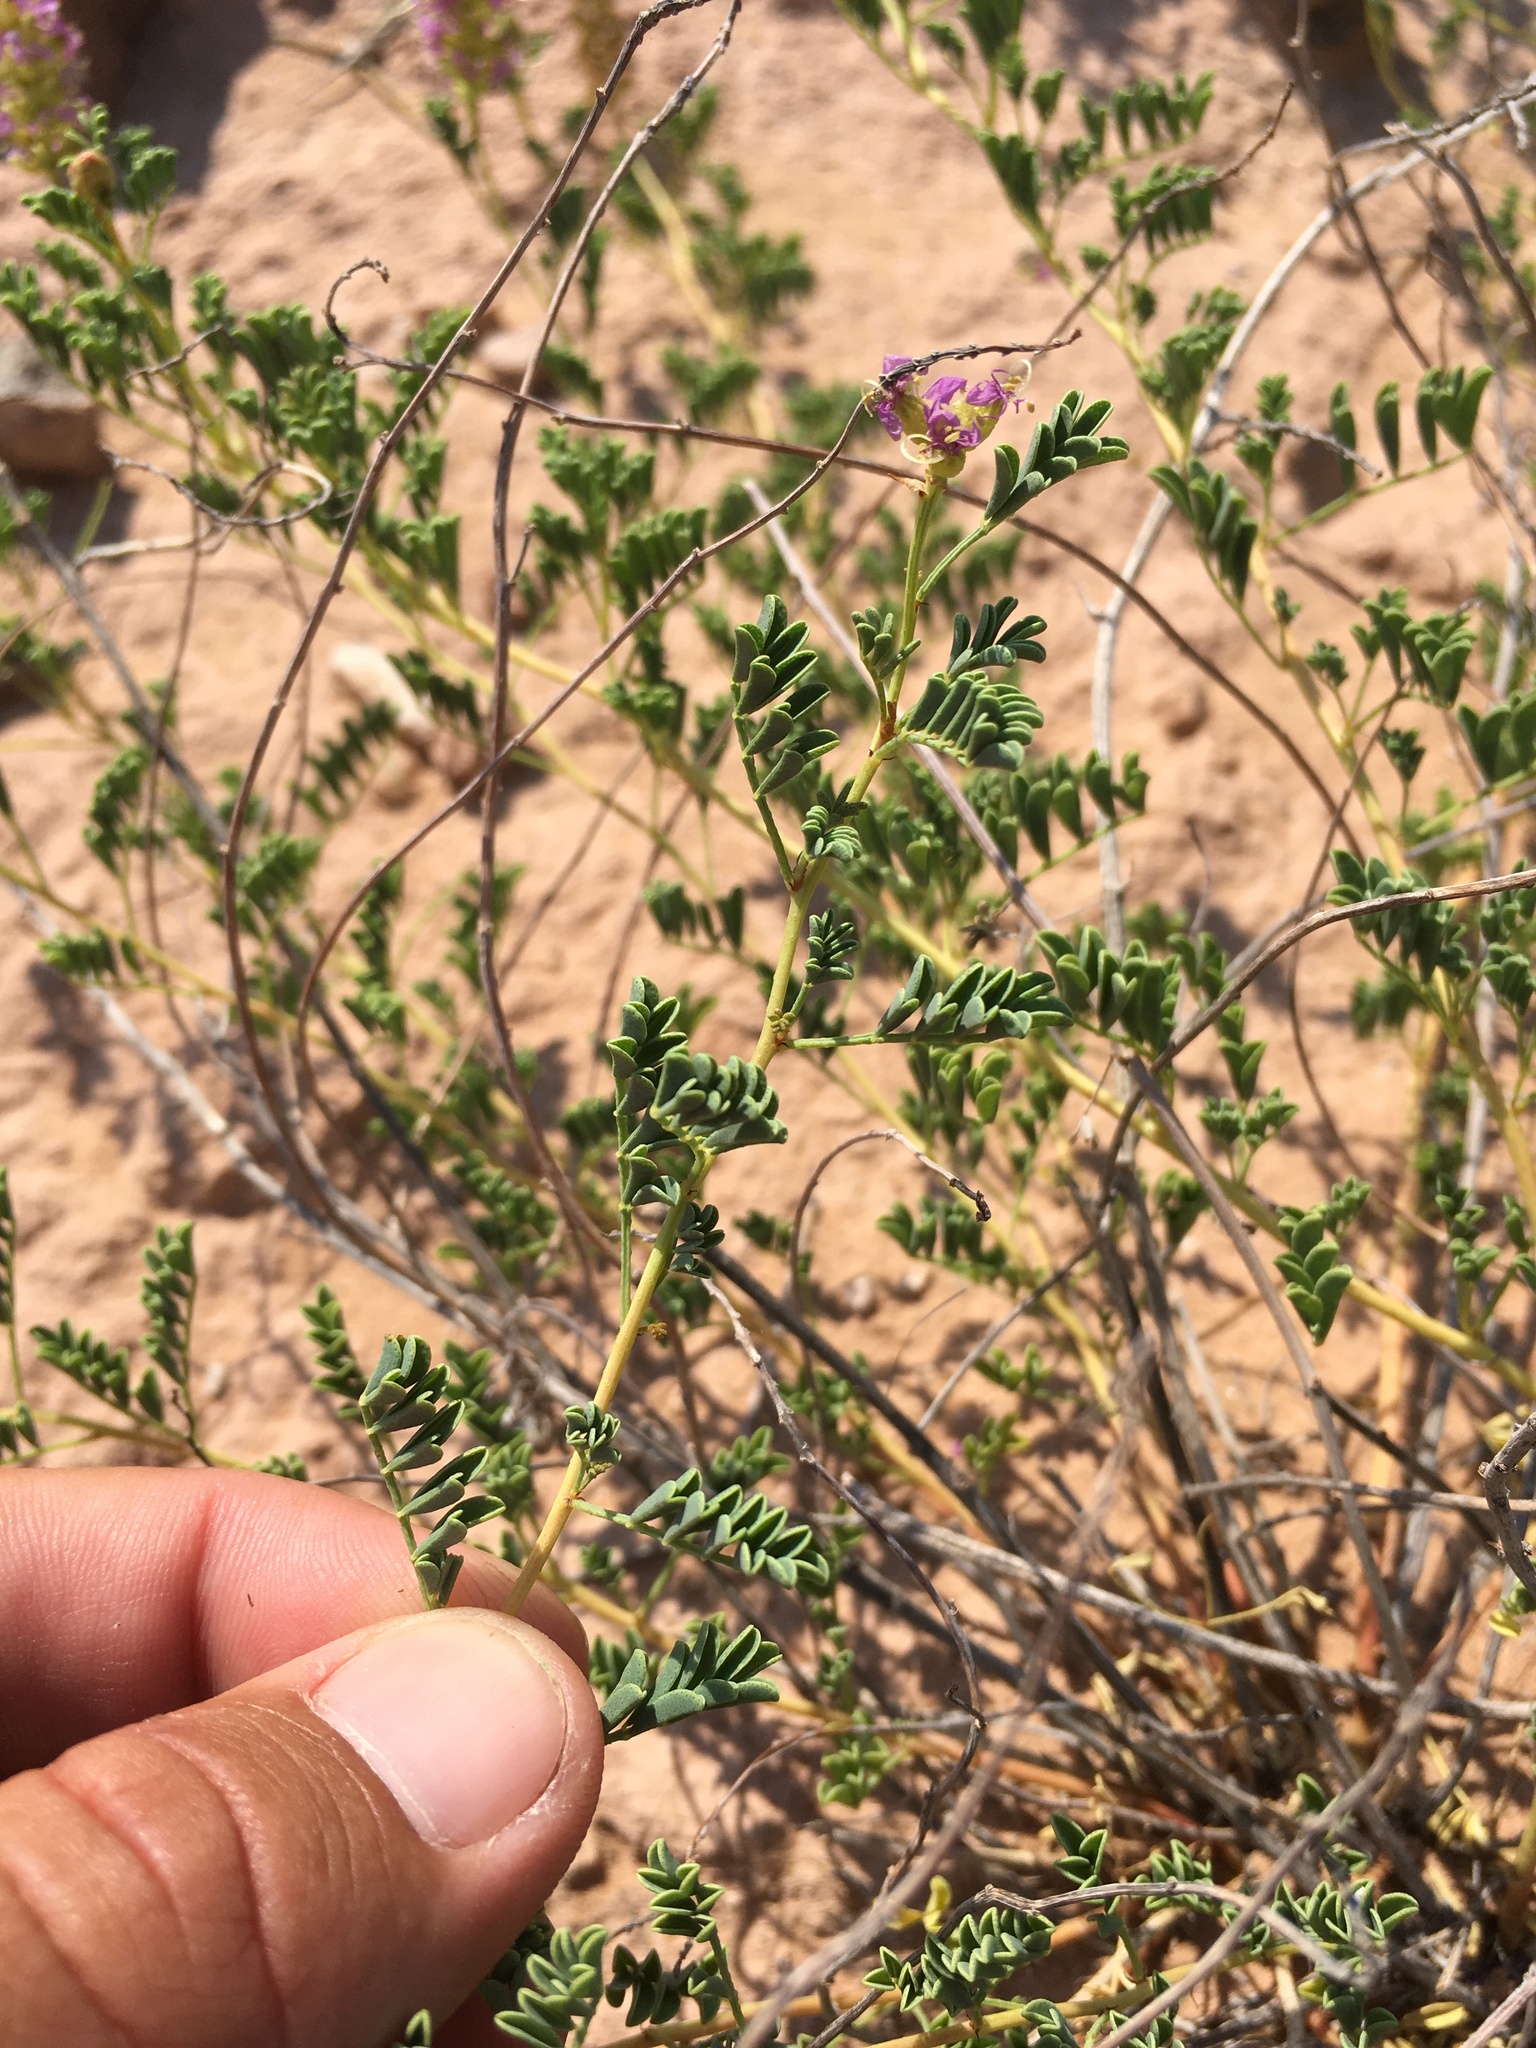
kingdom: Plantae
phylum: Tracheophyta
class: Magnoliopsida
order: Fabales
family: Fabaceae
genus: Dalea
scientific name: Dalea scariosa
